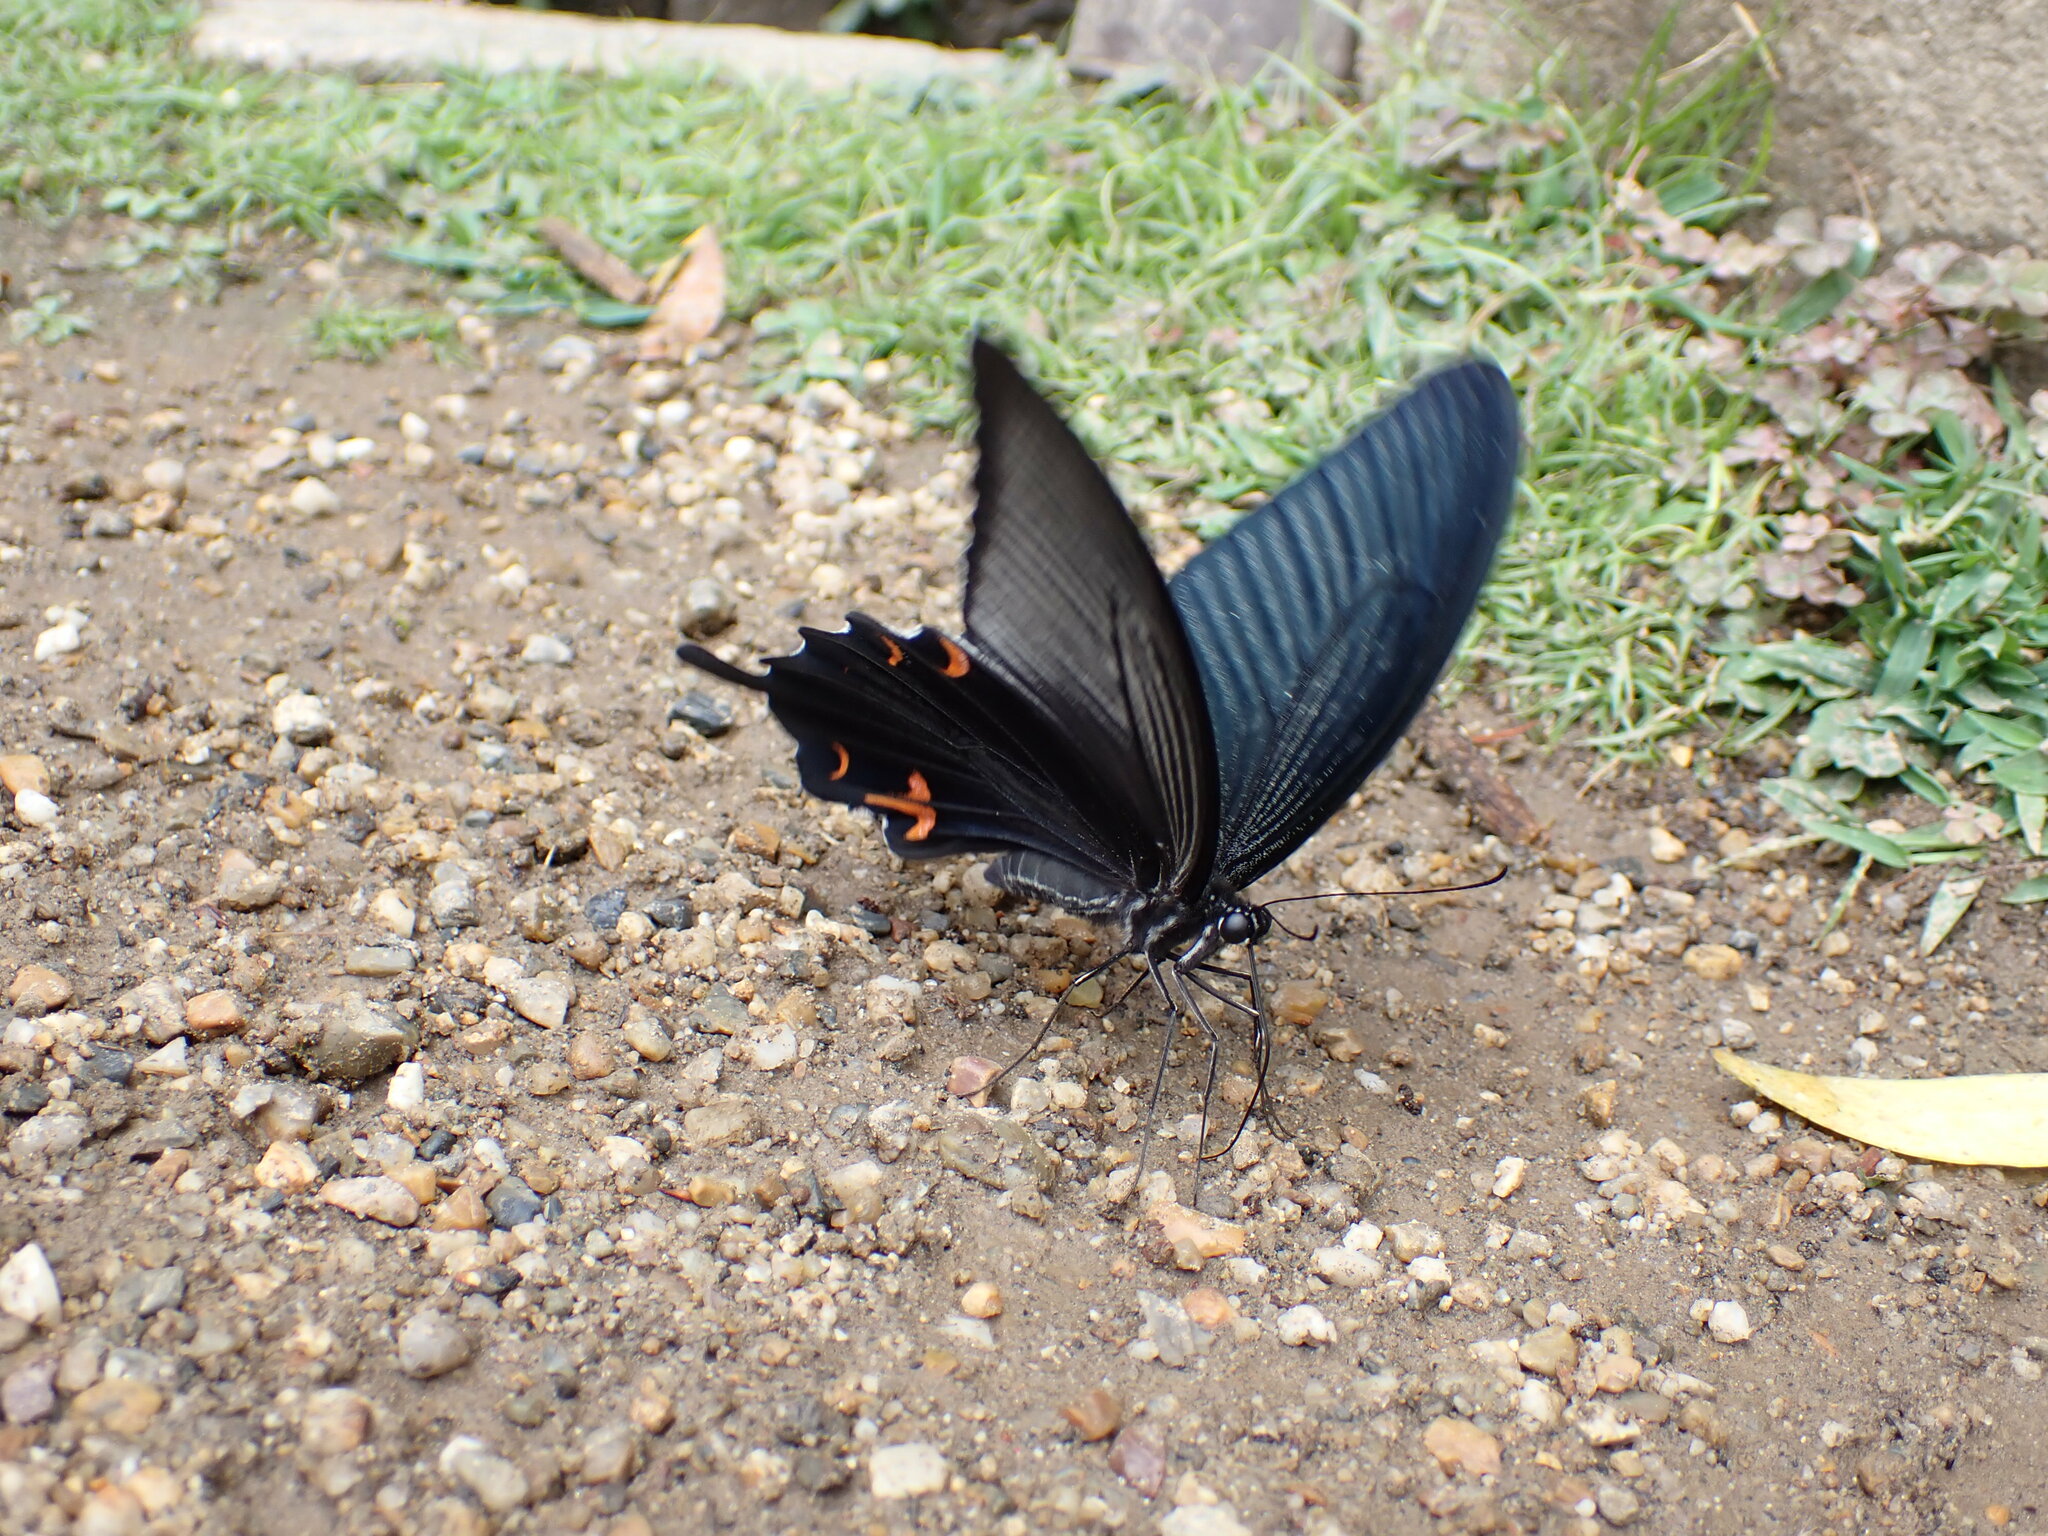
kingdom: Animalia
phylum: Arthropoda
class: Insecta
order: Lepidoptera
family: Papilionidae
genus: Papilio
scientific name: Papilio demetrius
